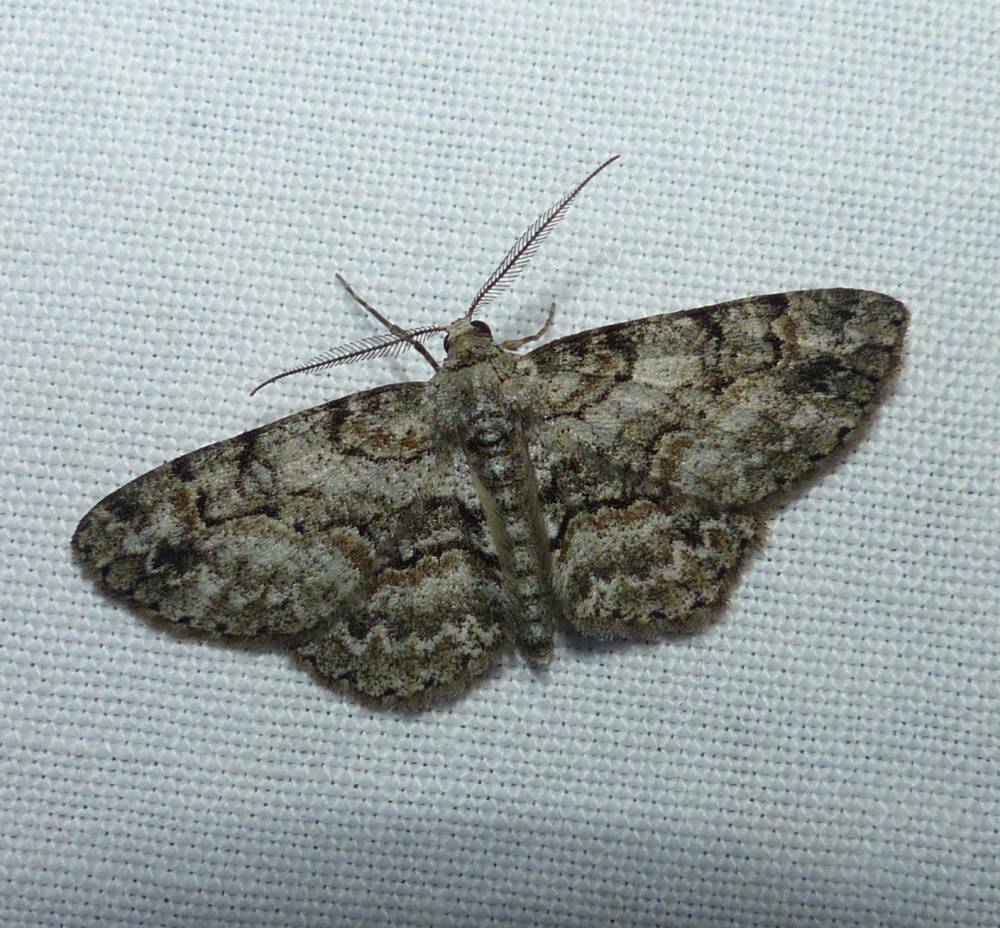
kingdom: Animalia
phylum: Arthropoda
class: Insecta
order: Lepidoptera
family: Geometridae
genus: Iridopsis
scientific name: Iridopsis ephyraria
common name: Pale-winged gray
